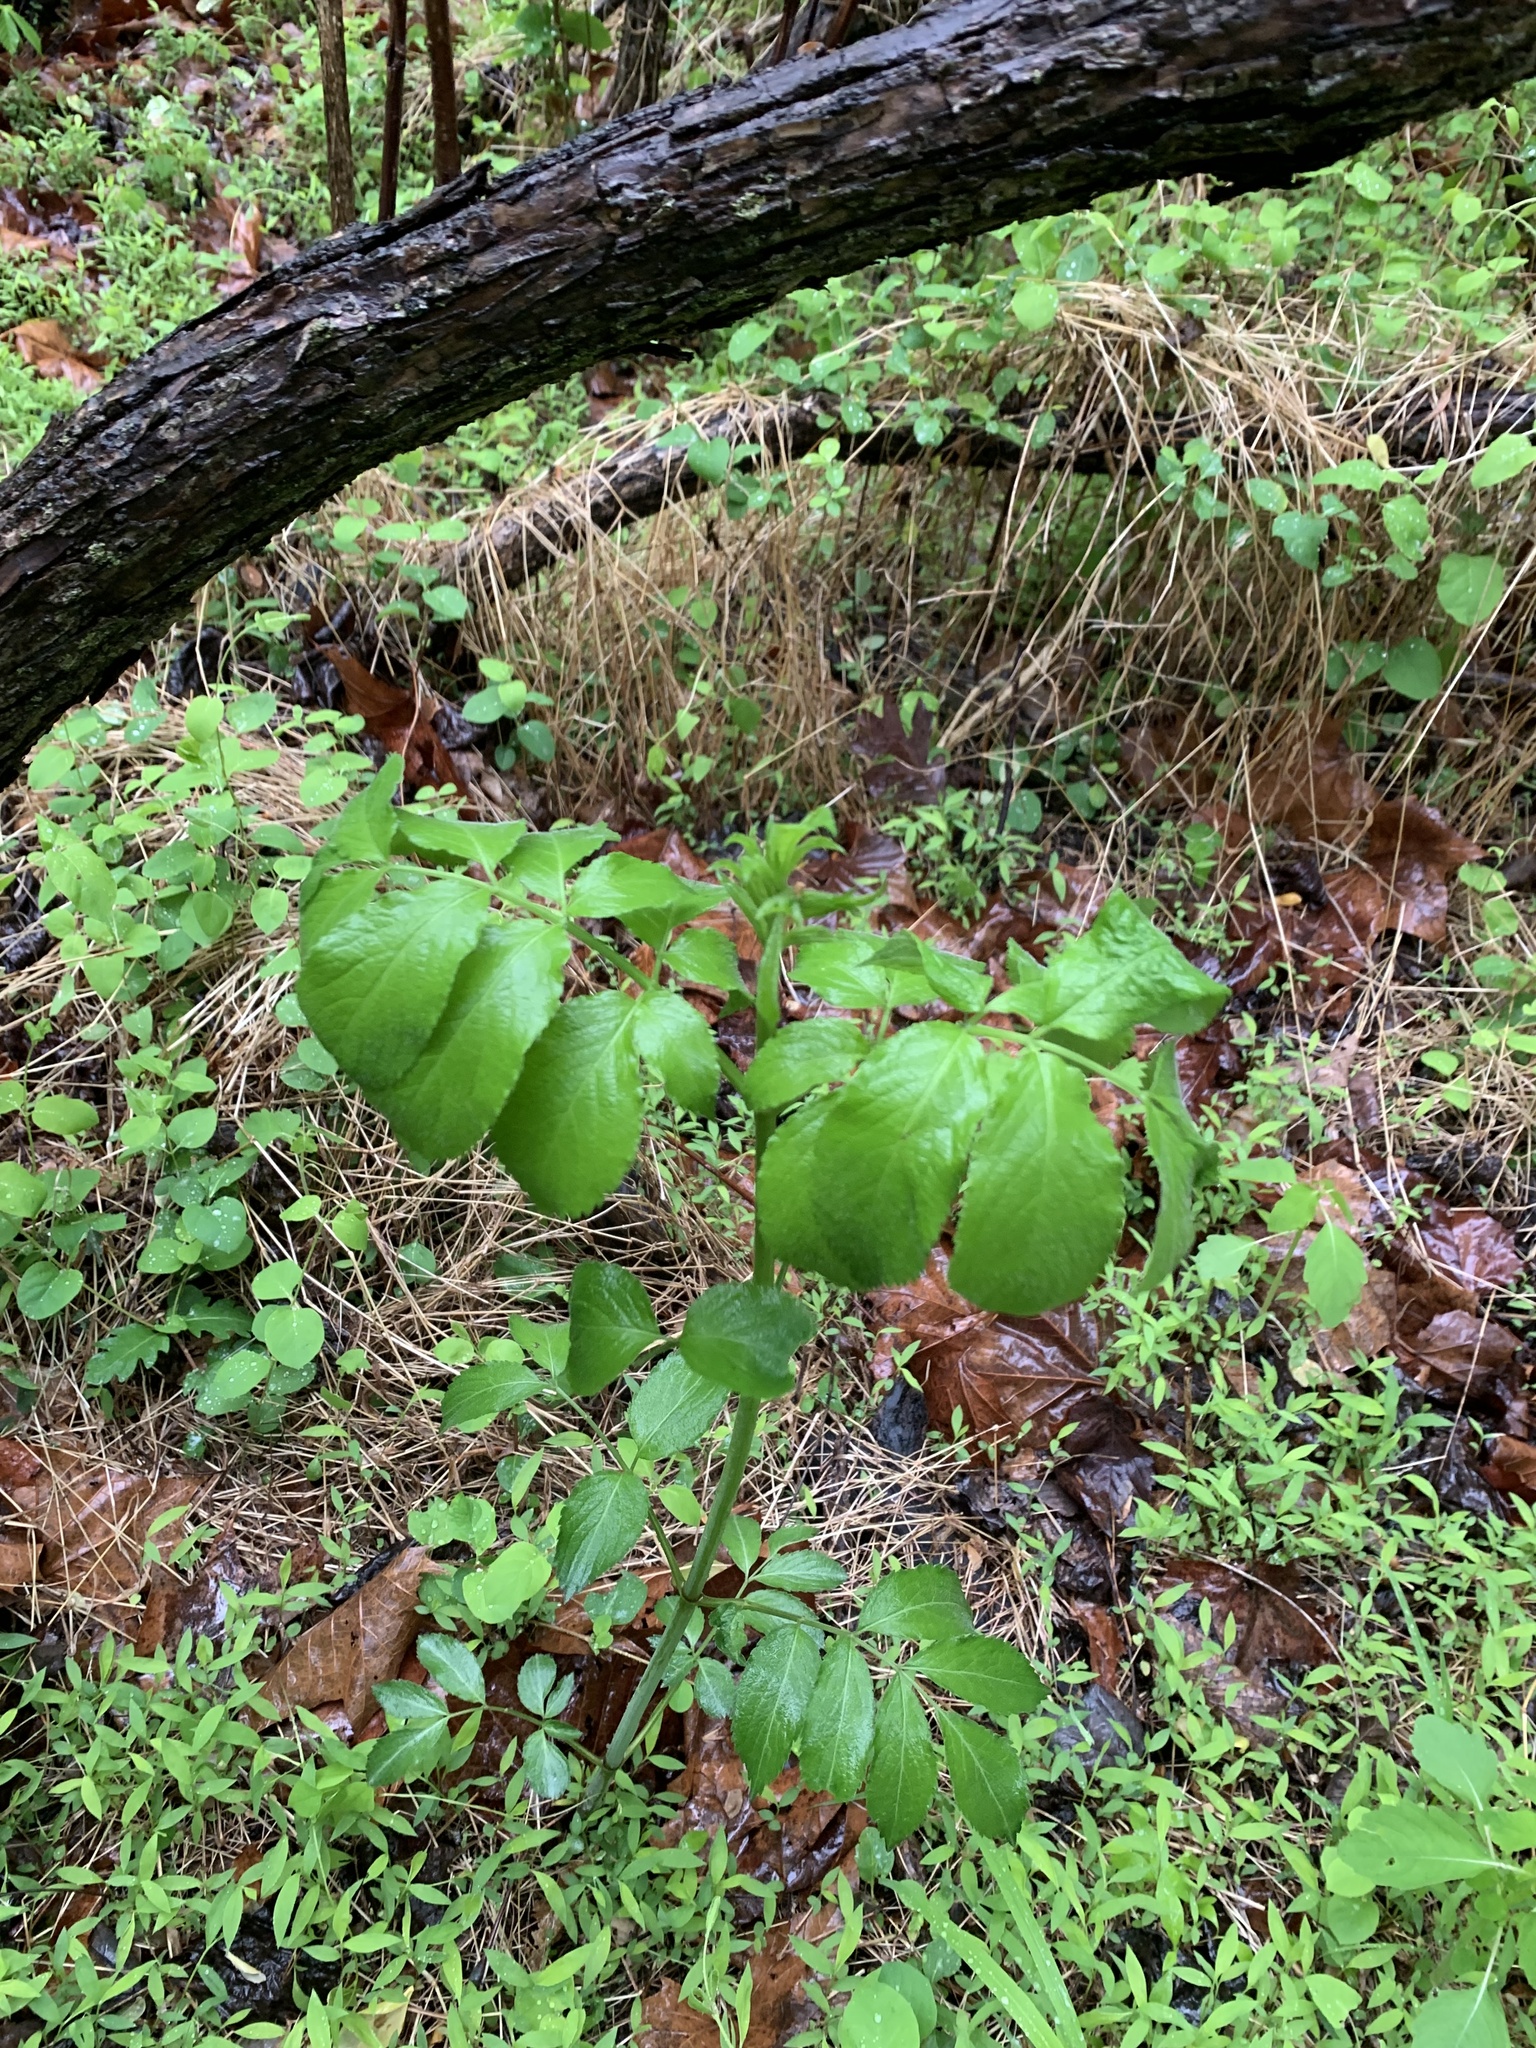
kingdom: Plantae
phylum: Tracheophyta
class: Magnoliopsida
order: Dipsacales
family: Viburnaceae
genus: Sambucus
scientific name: Sambucus canadensis
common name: American elder
